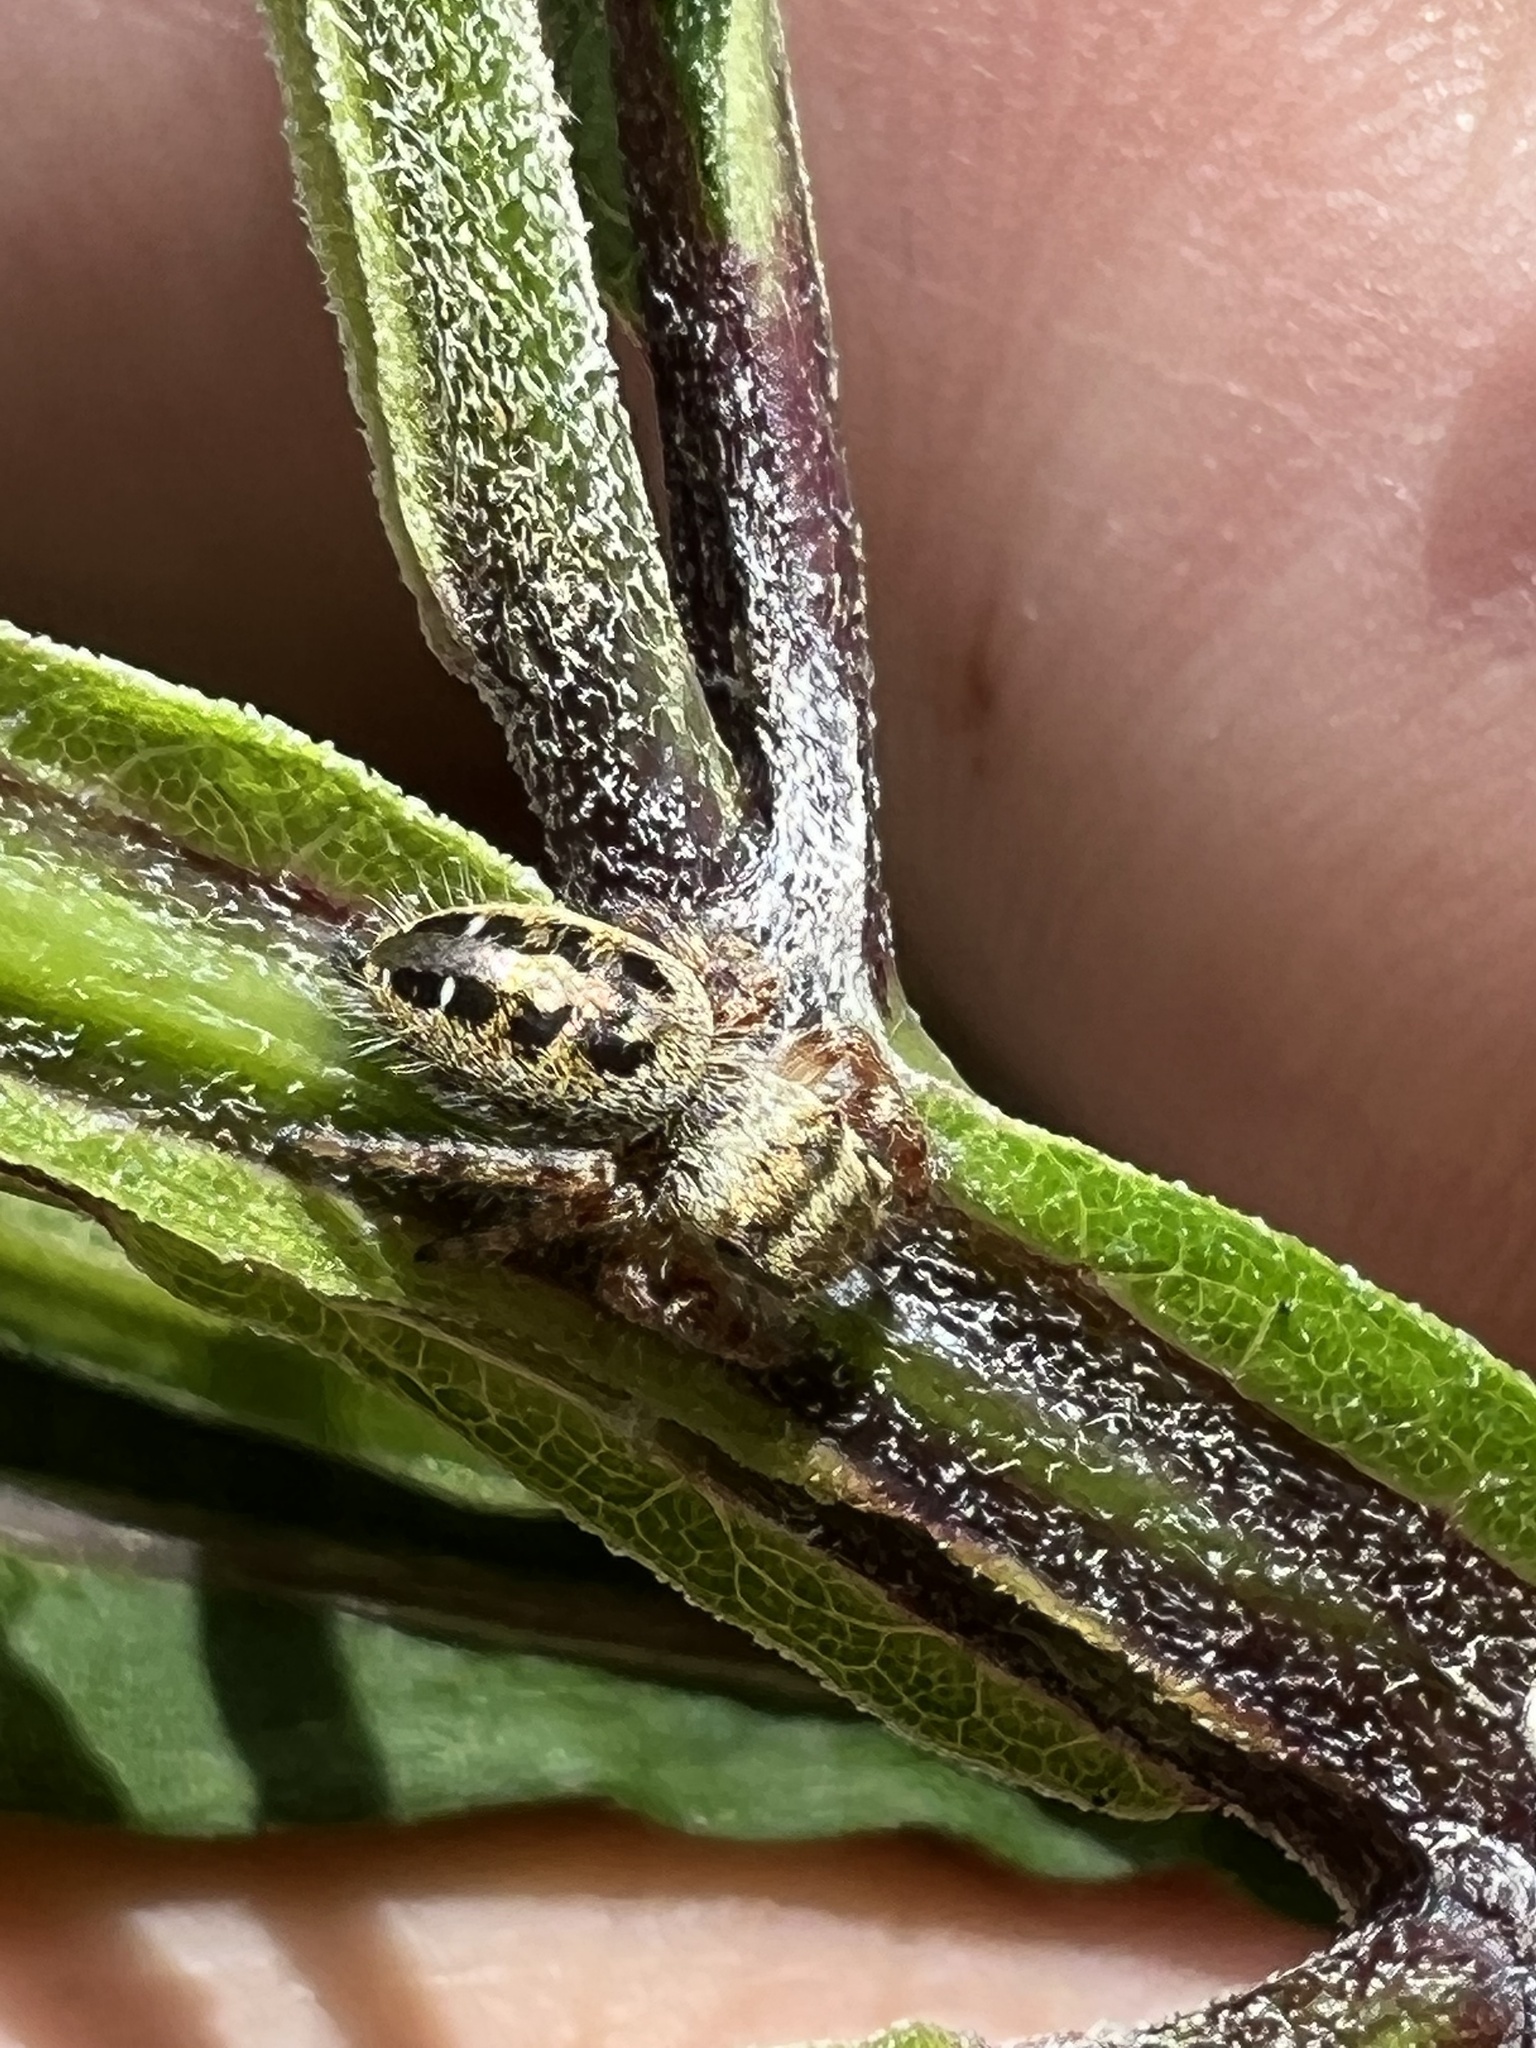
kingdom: Animalia
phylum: Arthropoda
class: Arachnida
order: Araneae
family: Salticidae
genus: Phidippus
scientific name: Phidippus princeps
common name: Grayish jumping spider
